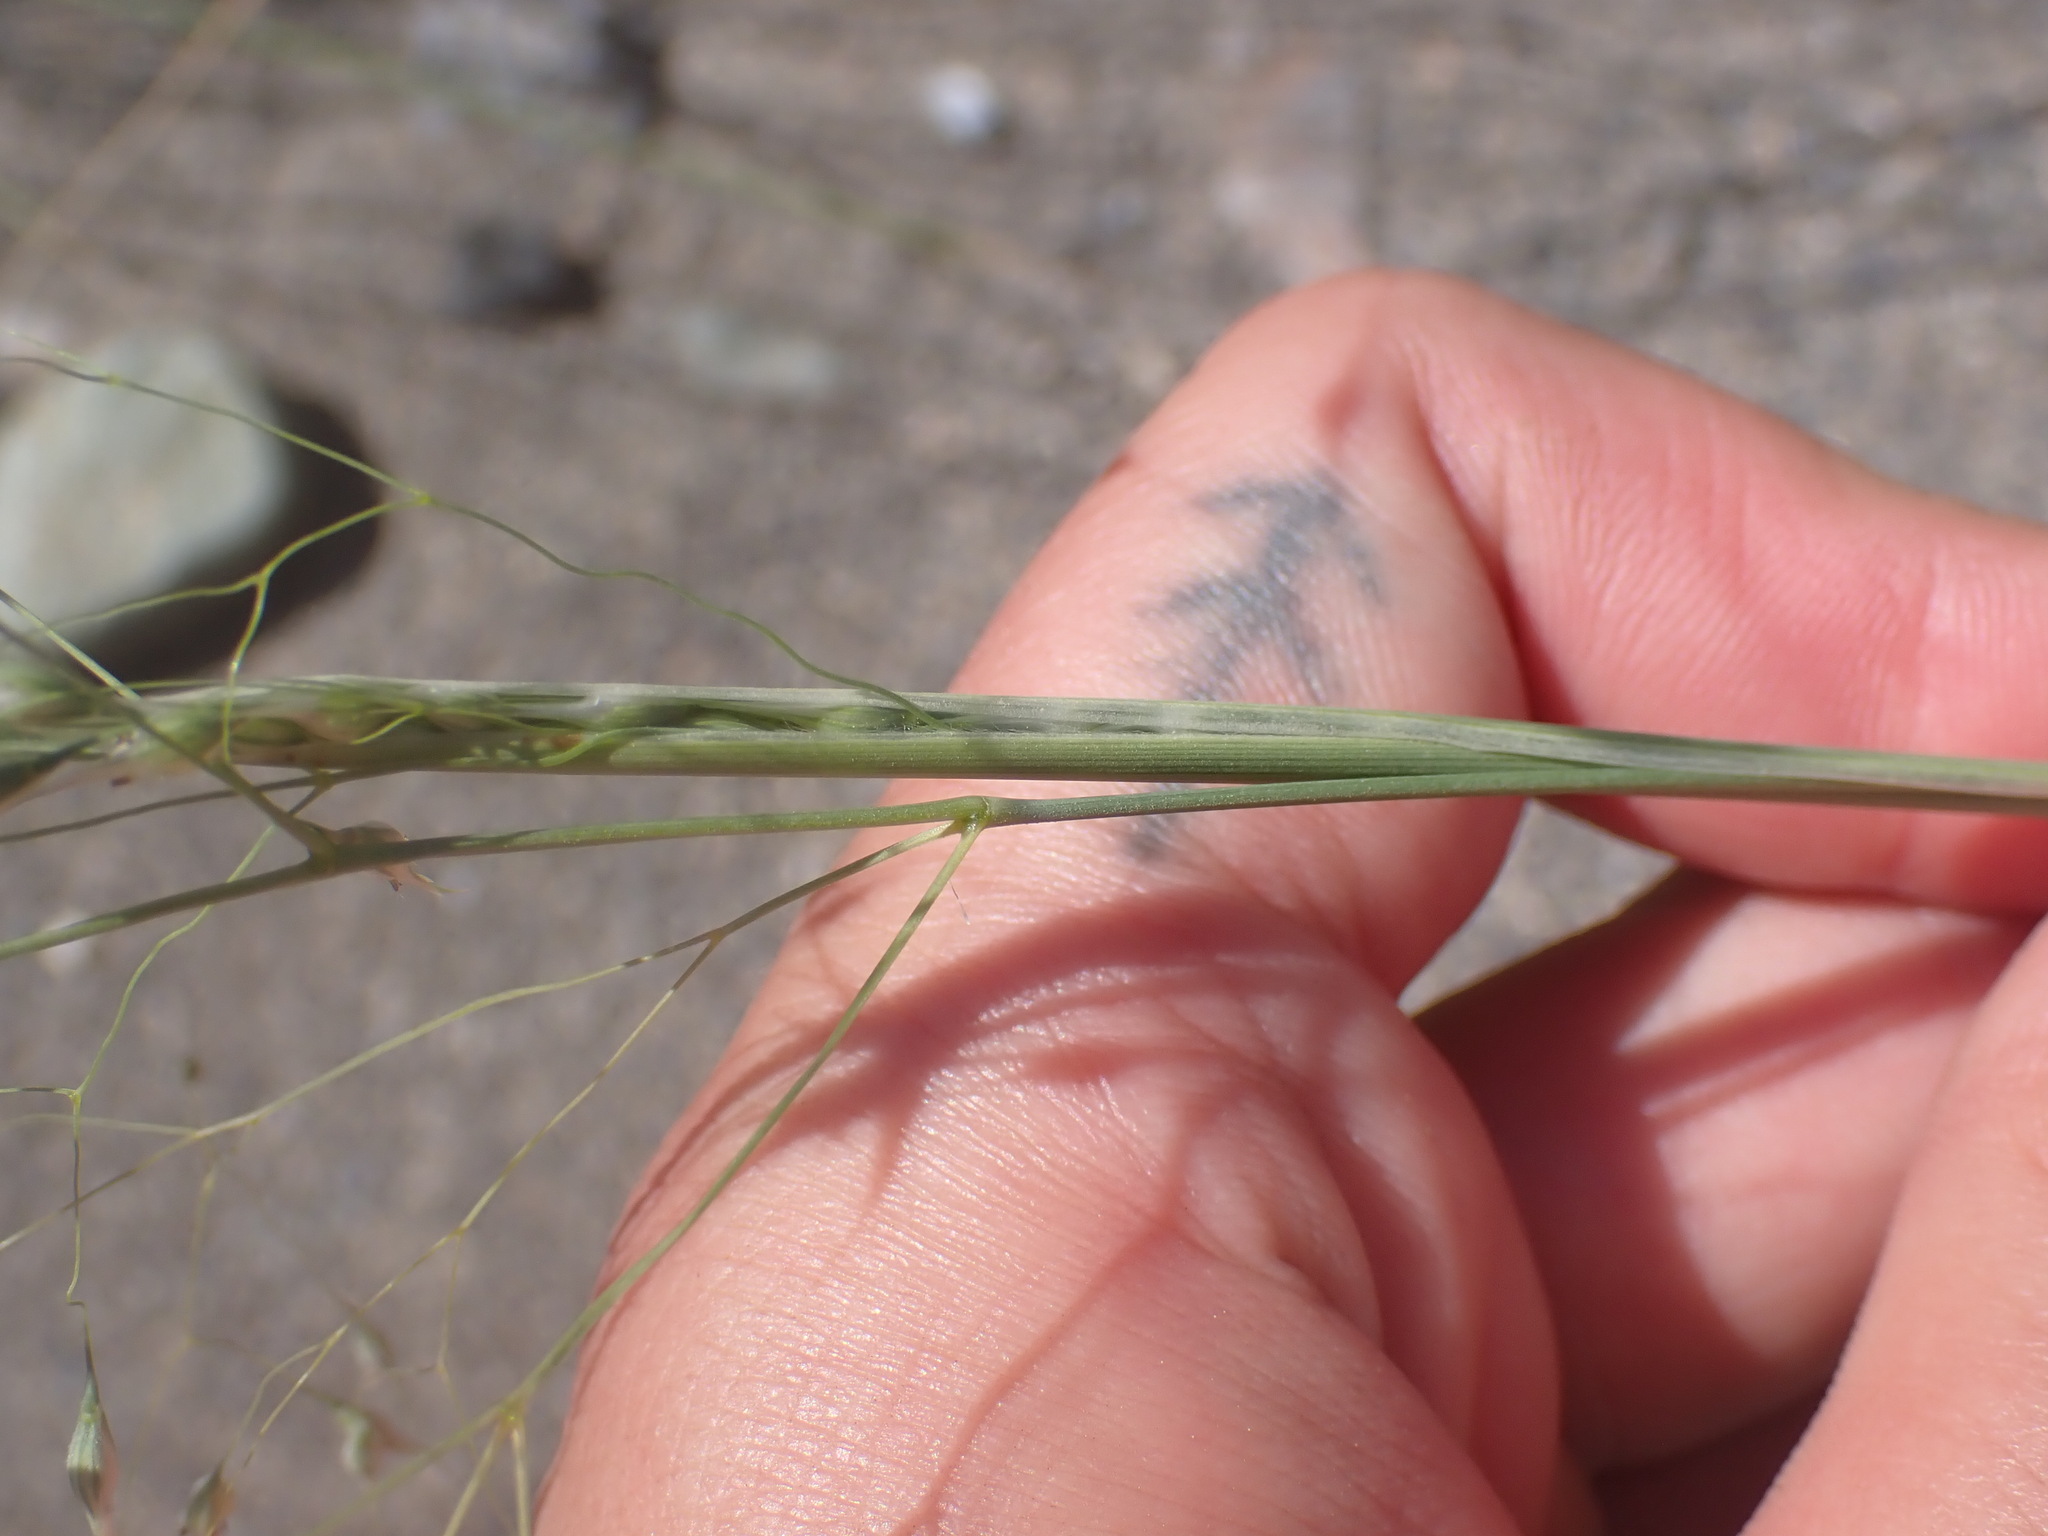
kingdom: Plantae
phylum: Tracheophyta
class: Liliopsida
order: Poales
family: Poaceae
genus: Eriocoma
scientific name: Eriocoma hymenoides
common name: Indian mountain ricegrass
